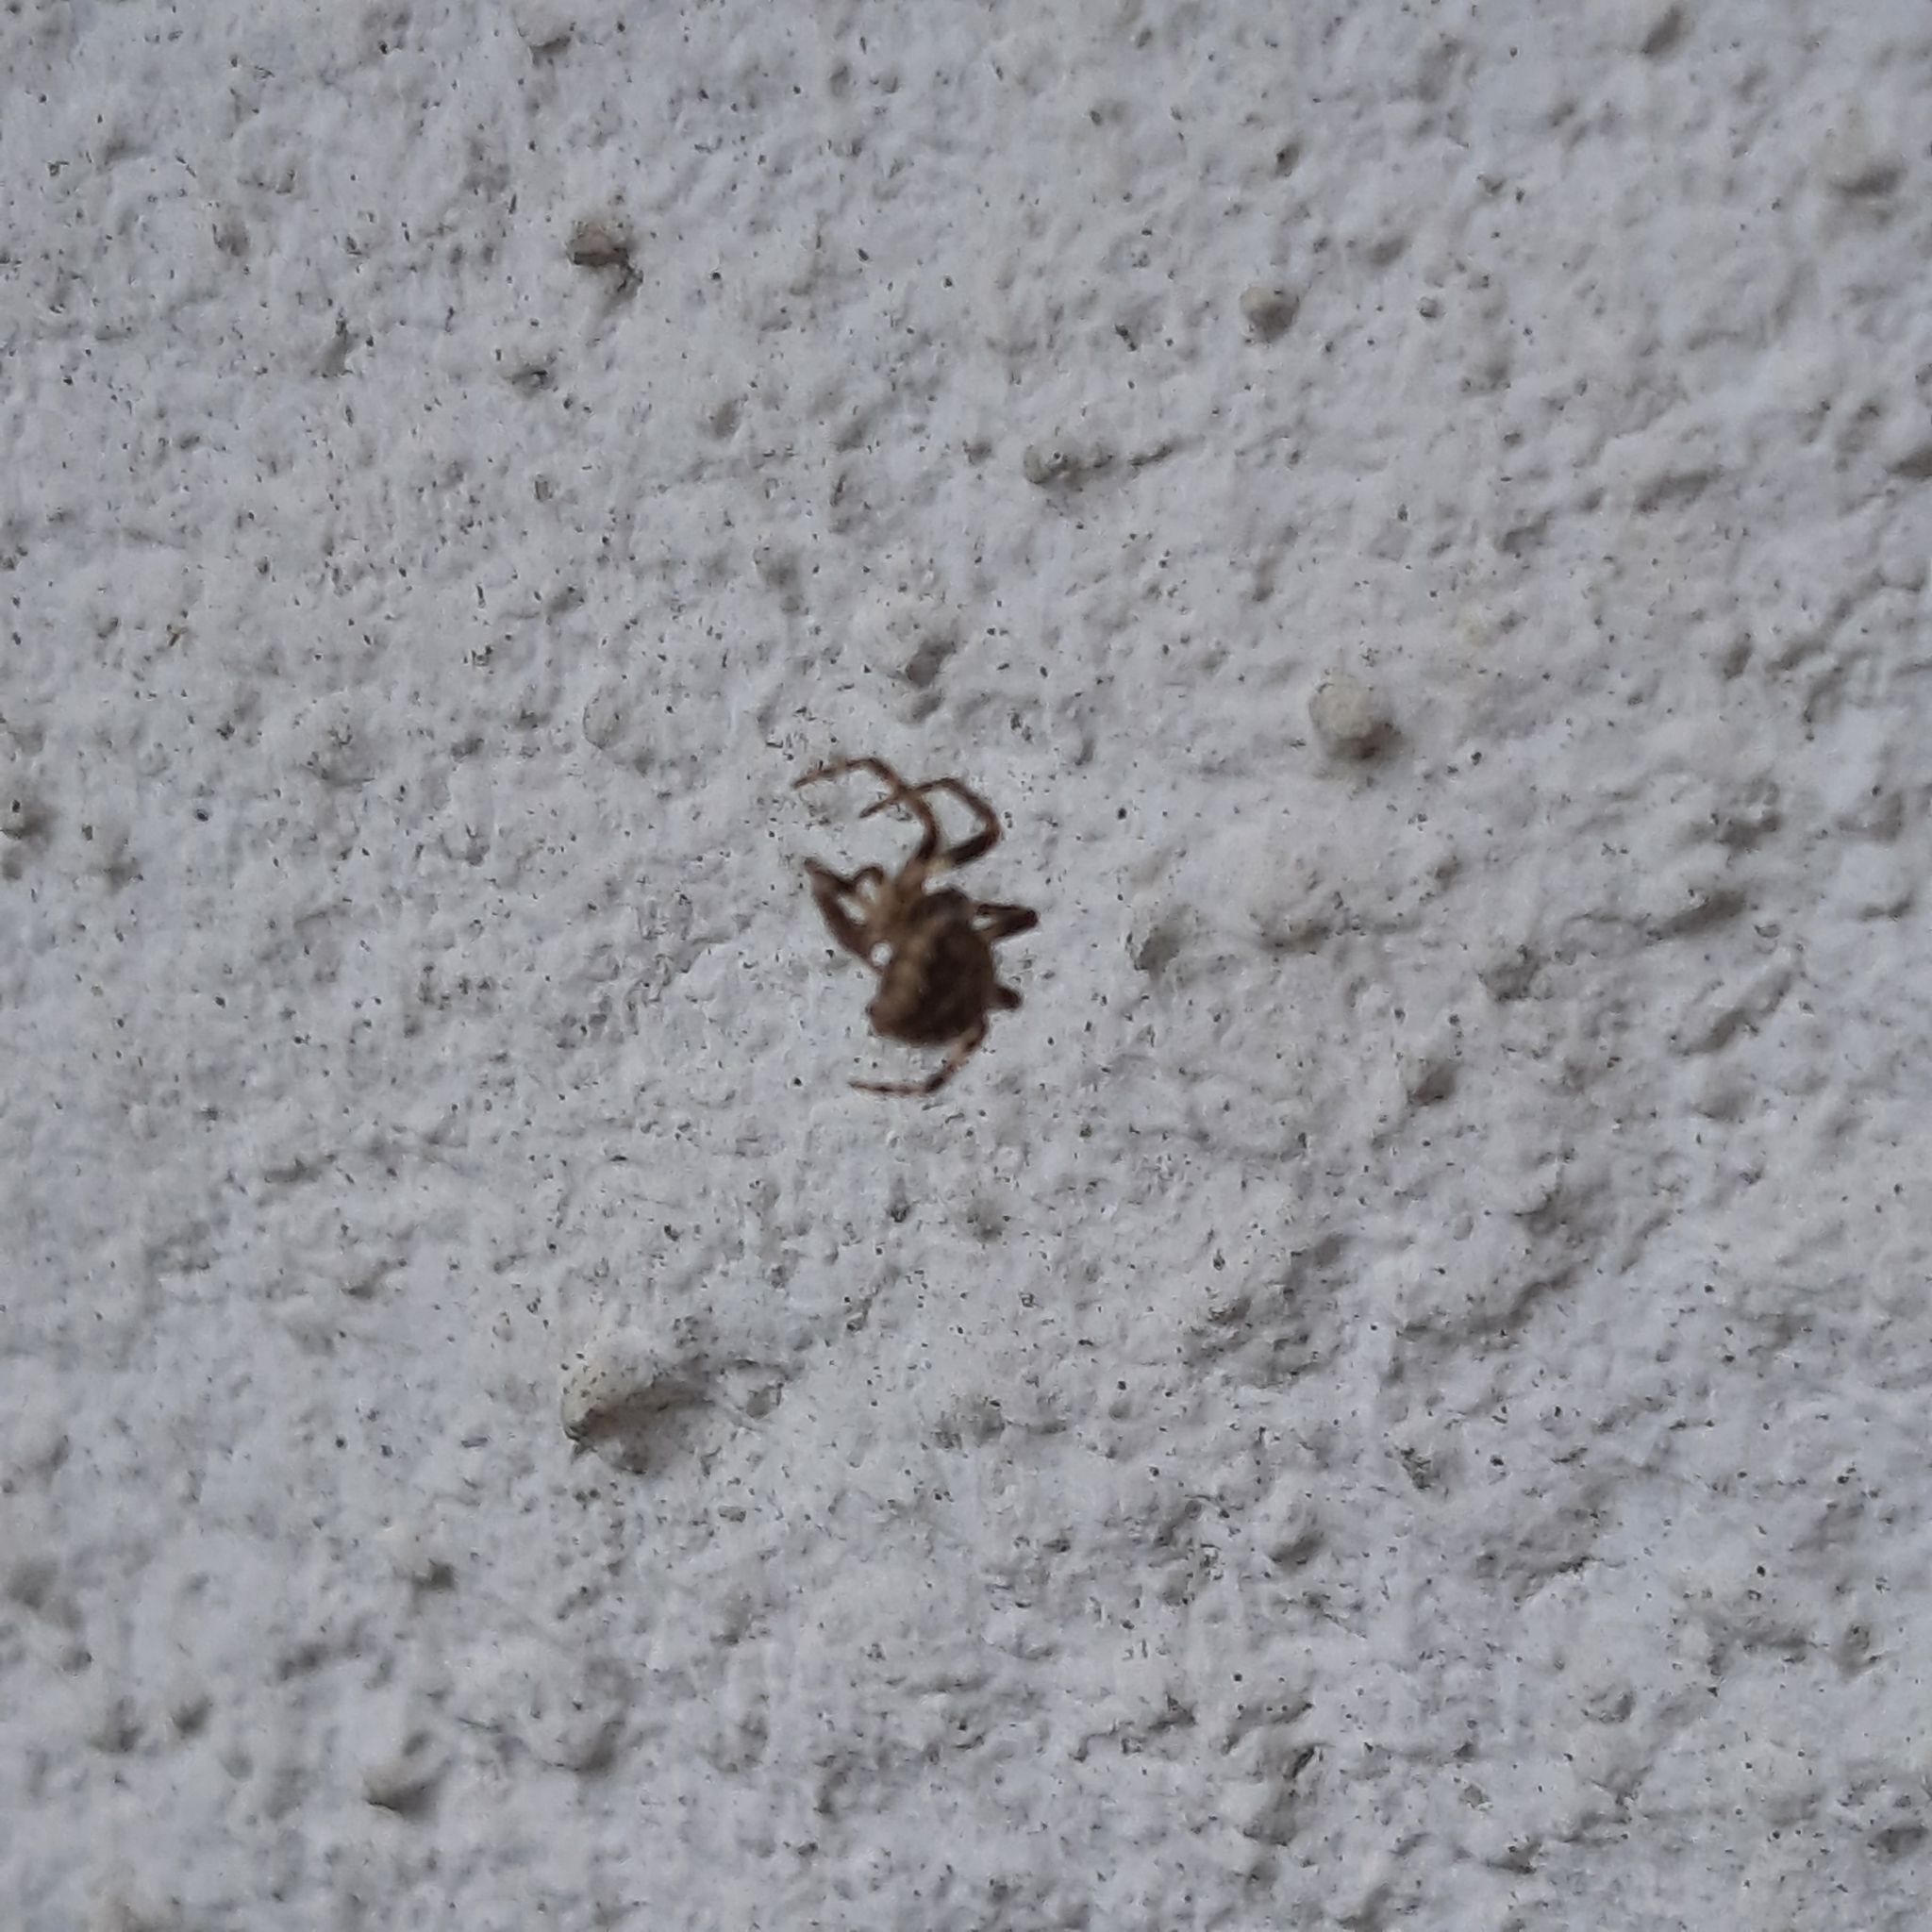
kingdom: Animalia
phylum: Arthropoda
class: Arachnida
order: Araneae
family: Araneidae
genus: Larinioides
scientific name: Larinioides sclopetarius
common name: Bridge orbweaver
